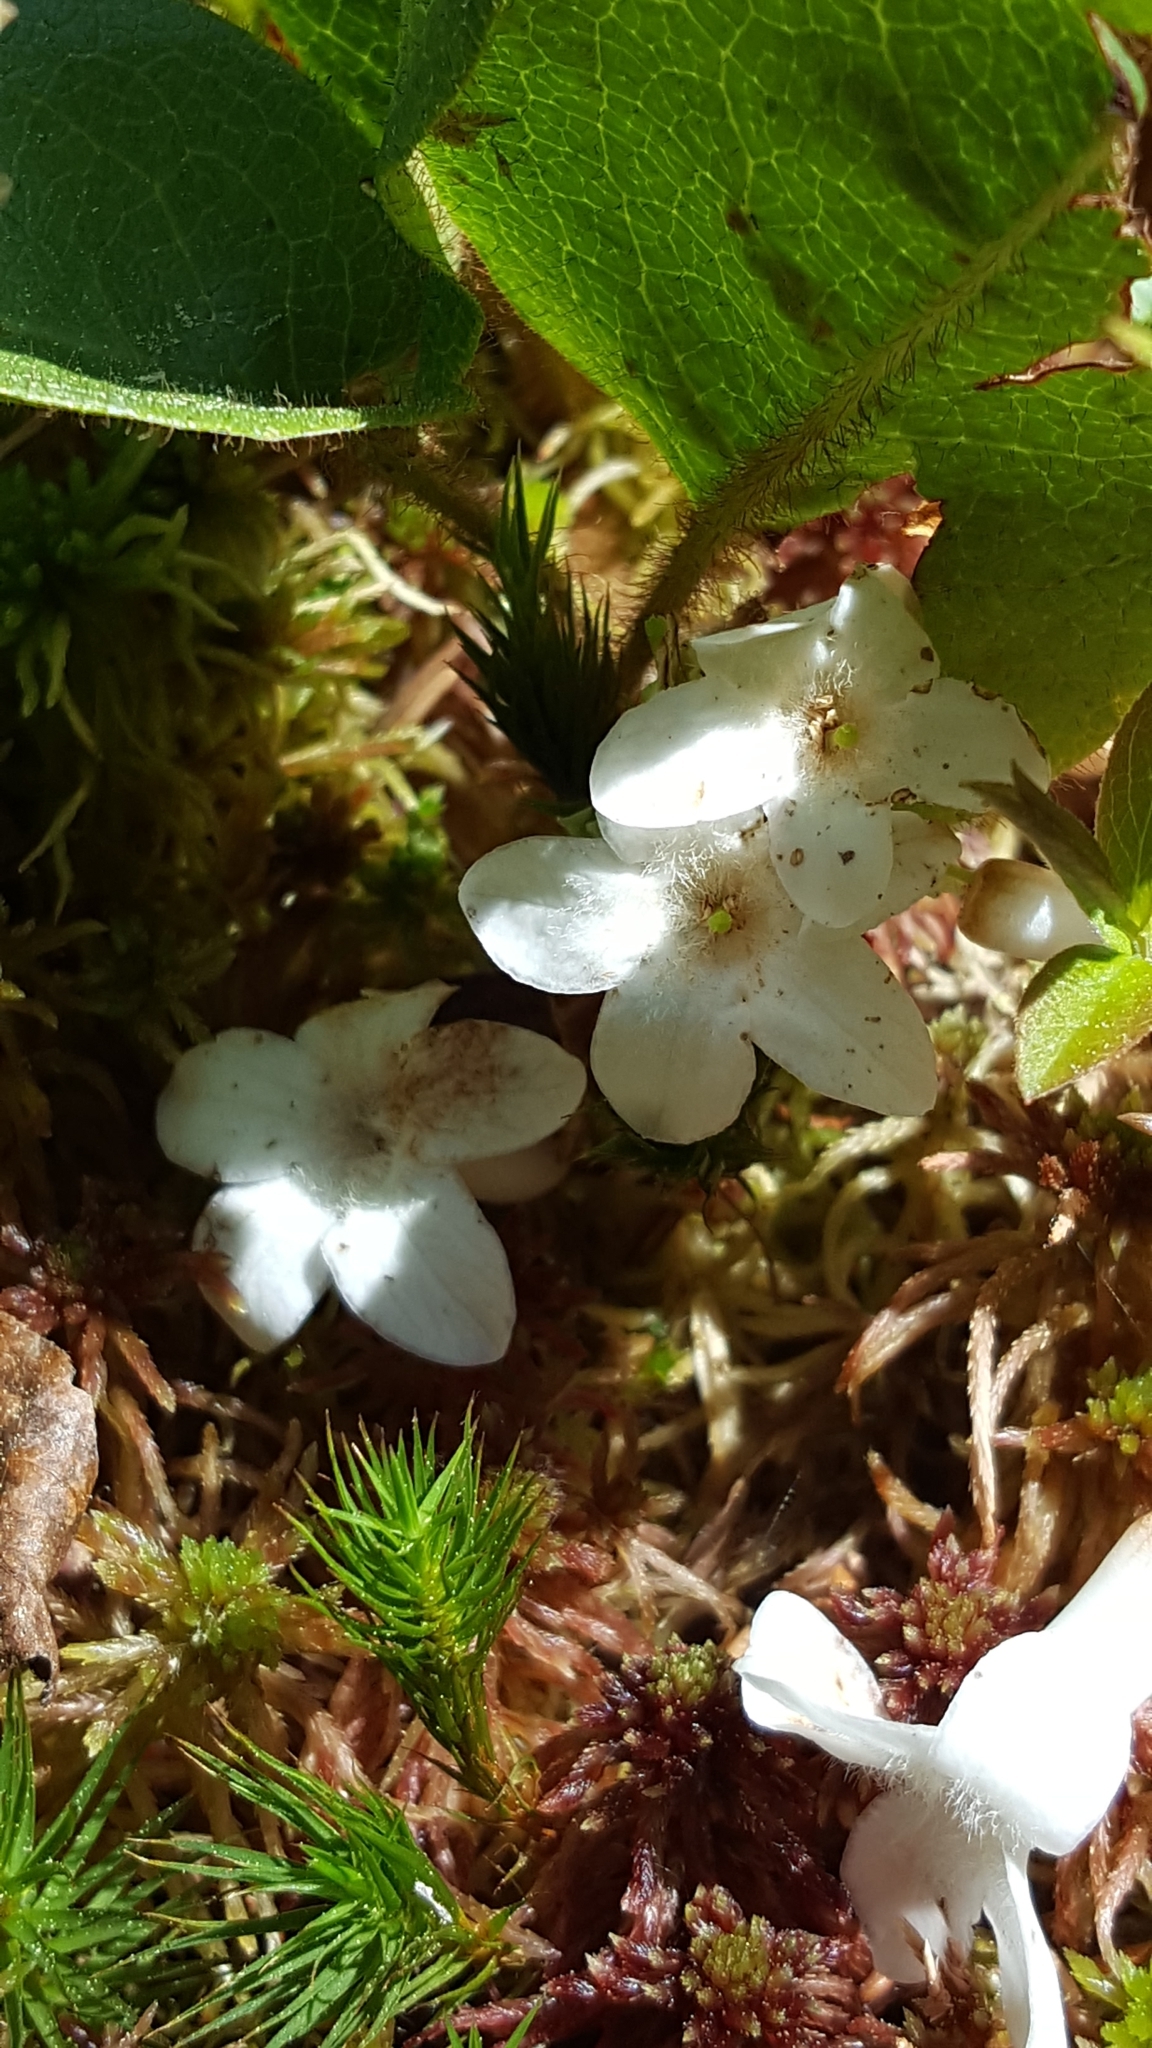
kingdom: Plantae
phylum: Tracheophyta
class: Magnoliopsida
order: Ericales
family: Ericaceae
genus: Epigaea
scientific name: Epigaea repens
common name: Gravelroot
